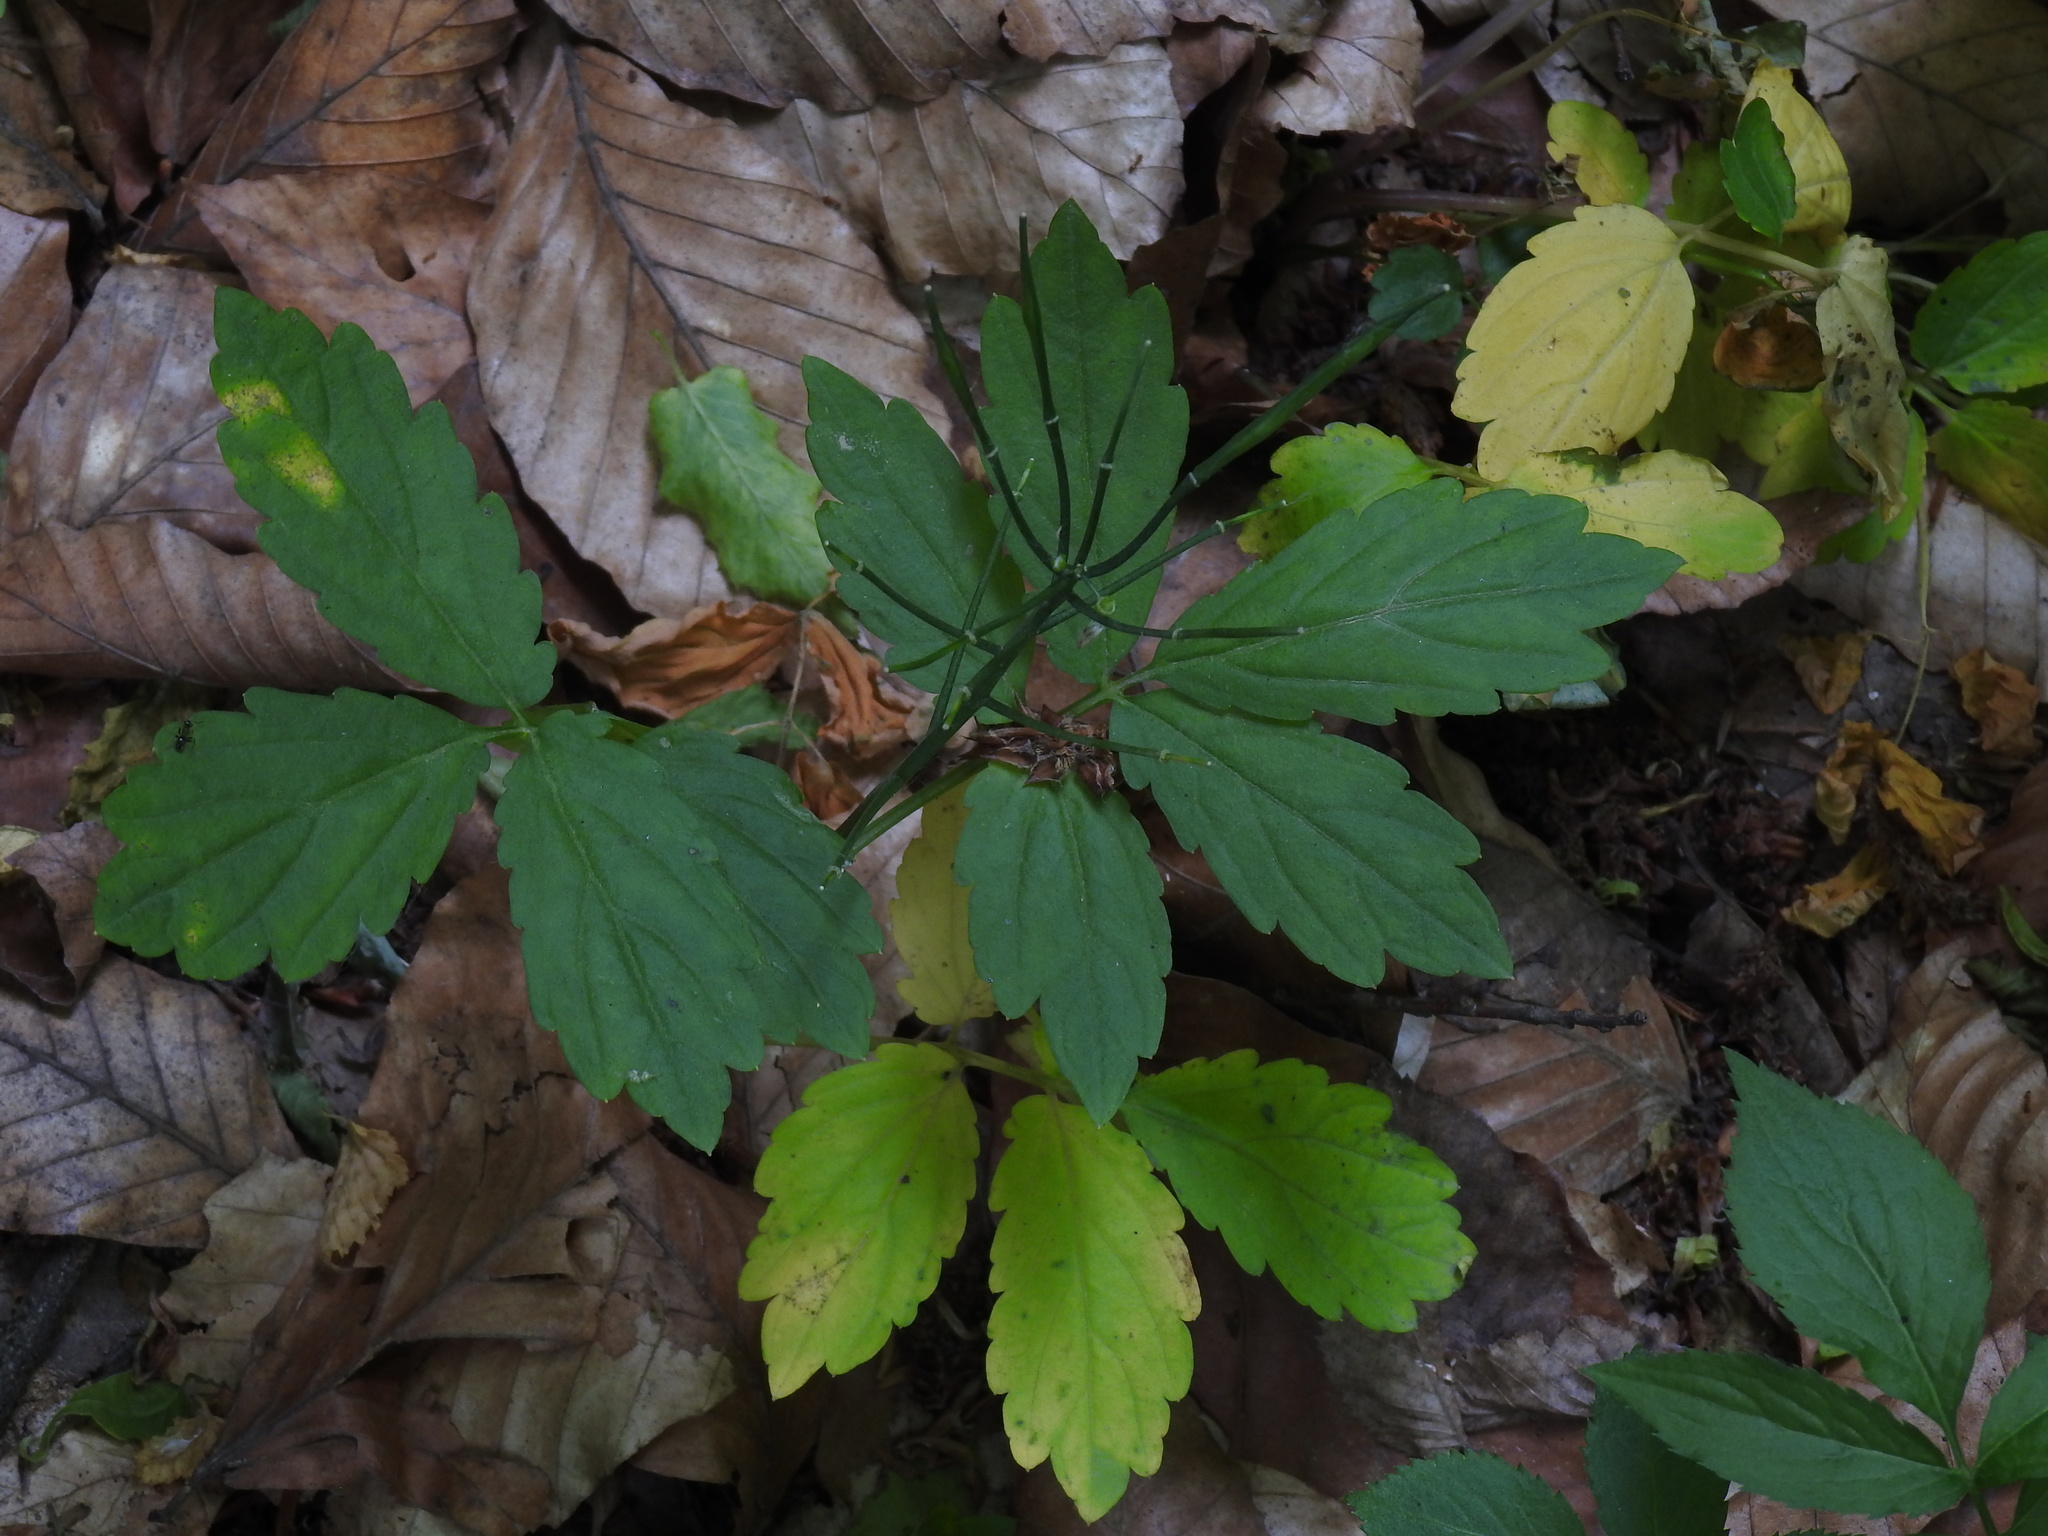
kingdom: Plantae
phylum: Tracheophyta
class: Magnoliopsida
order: Brassicales
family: Brassicaceae
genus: Cardamine
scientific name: Cardamine quinquefolia
